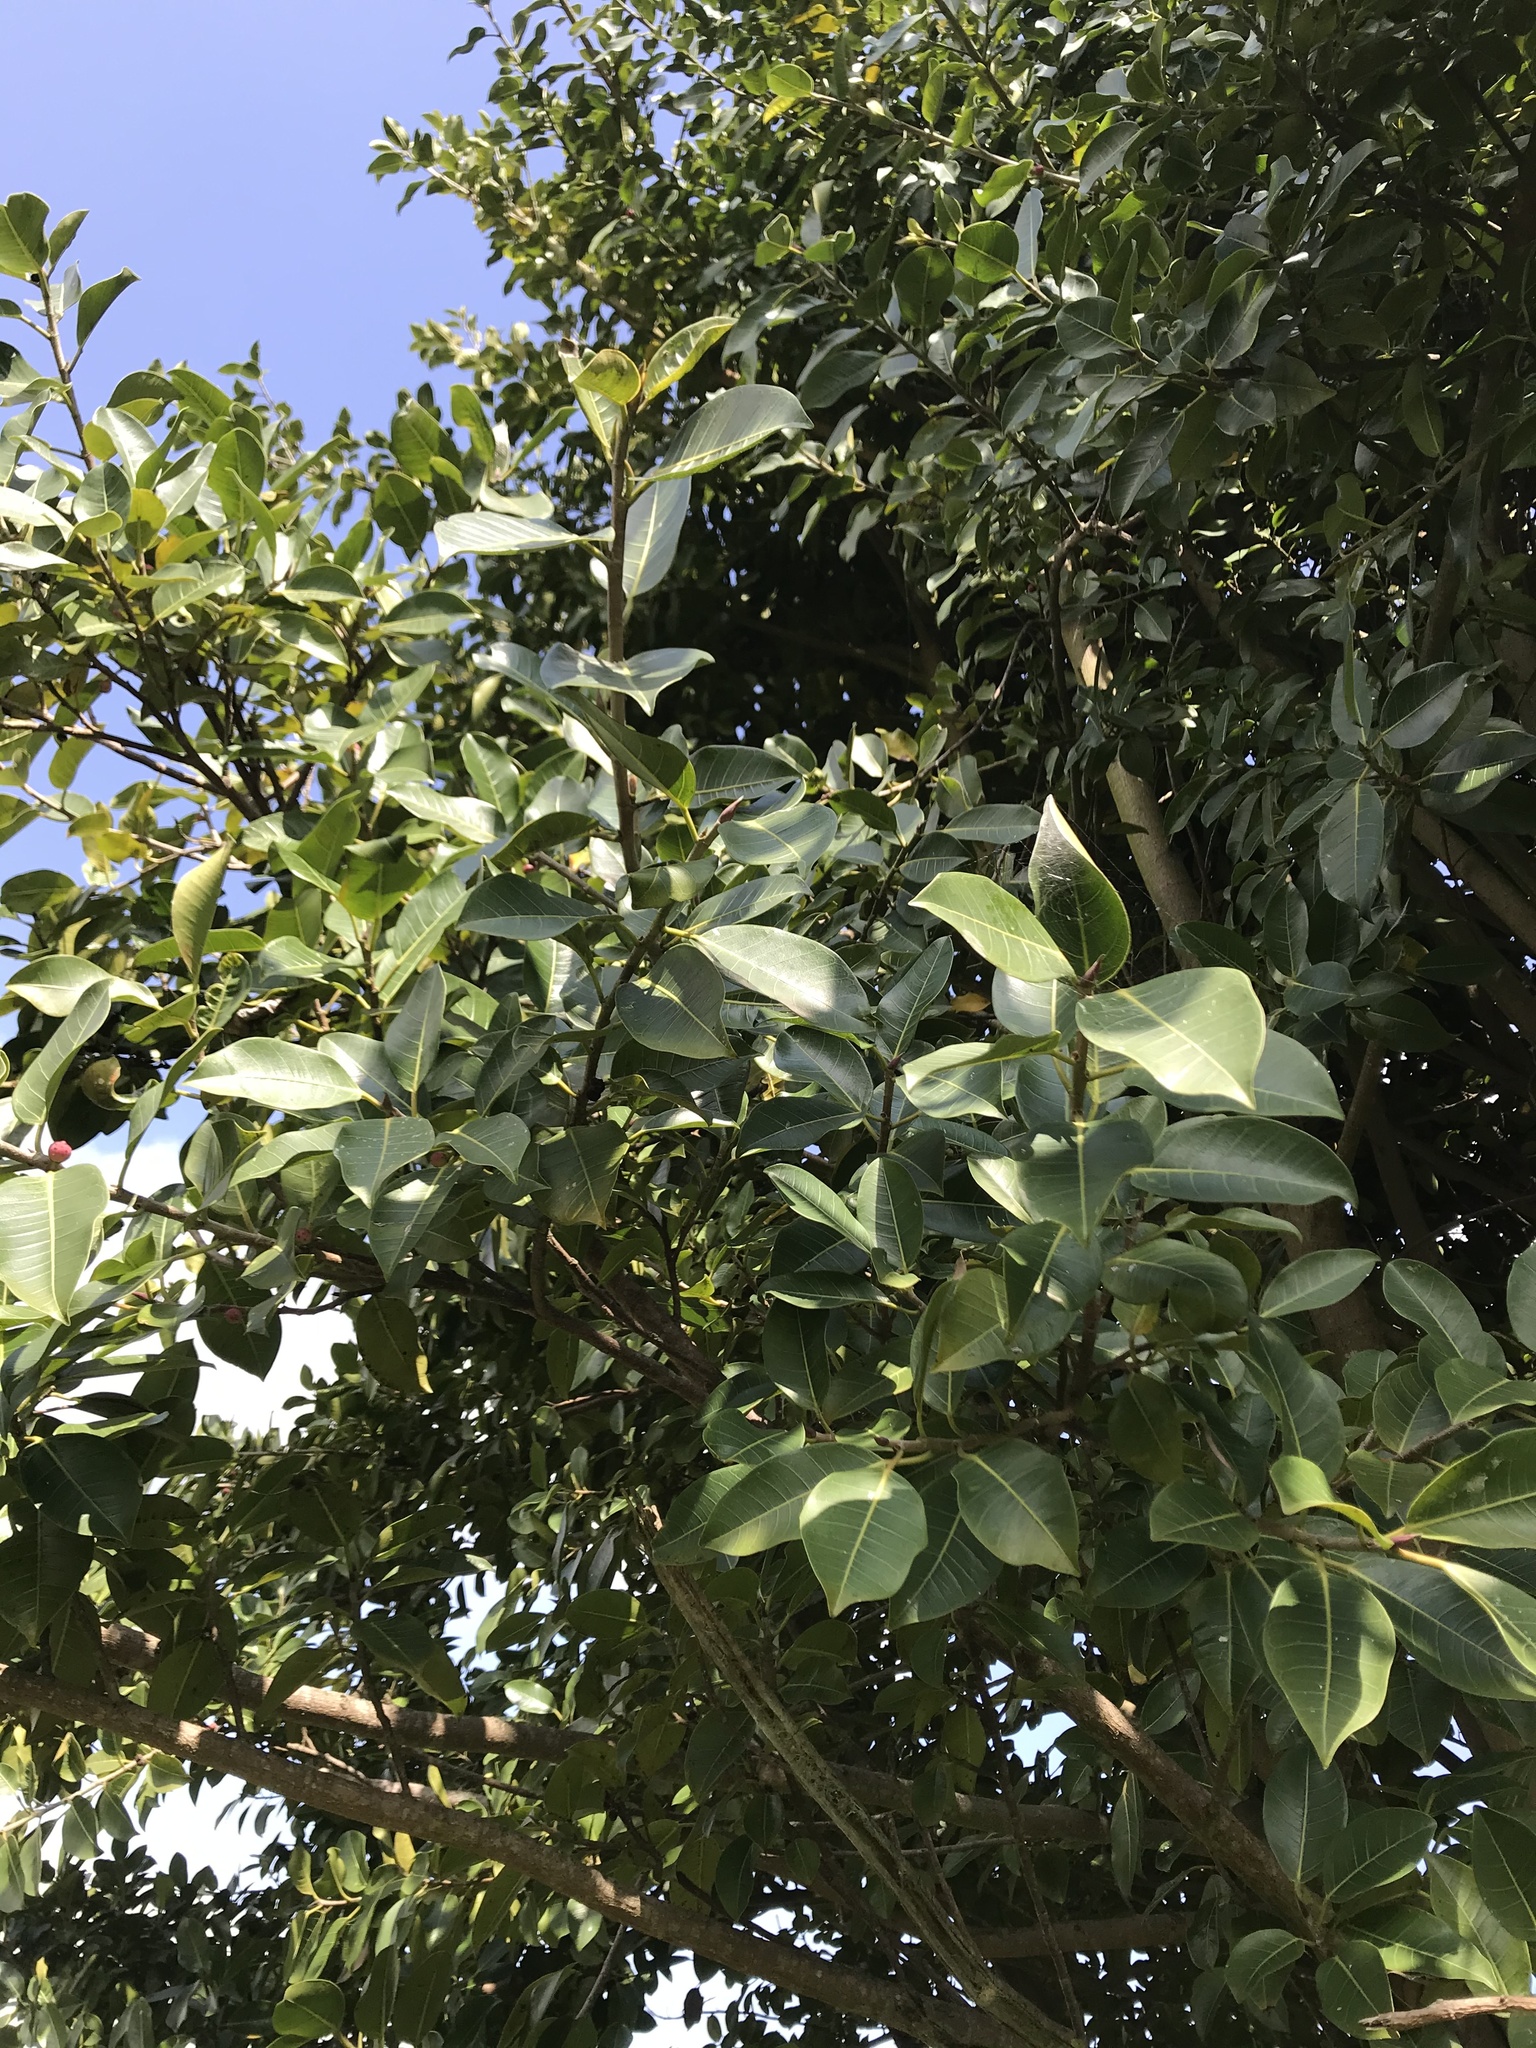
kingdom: Plantae
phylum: Tracheophyta
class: Magnoliopsida
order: Rosales
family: Moraceae
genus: Ficus
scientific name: Ficus soatensis
